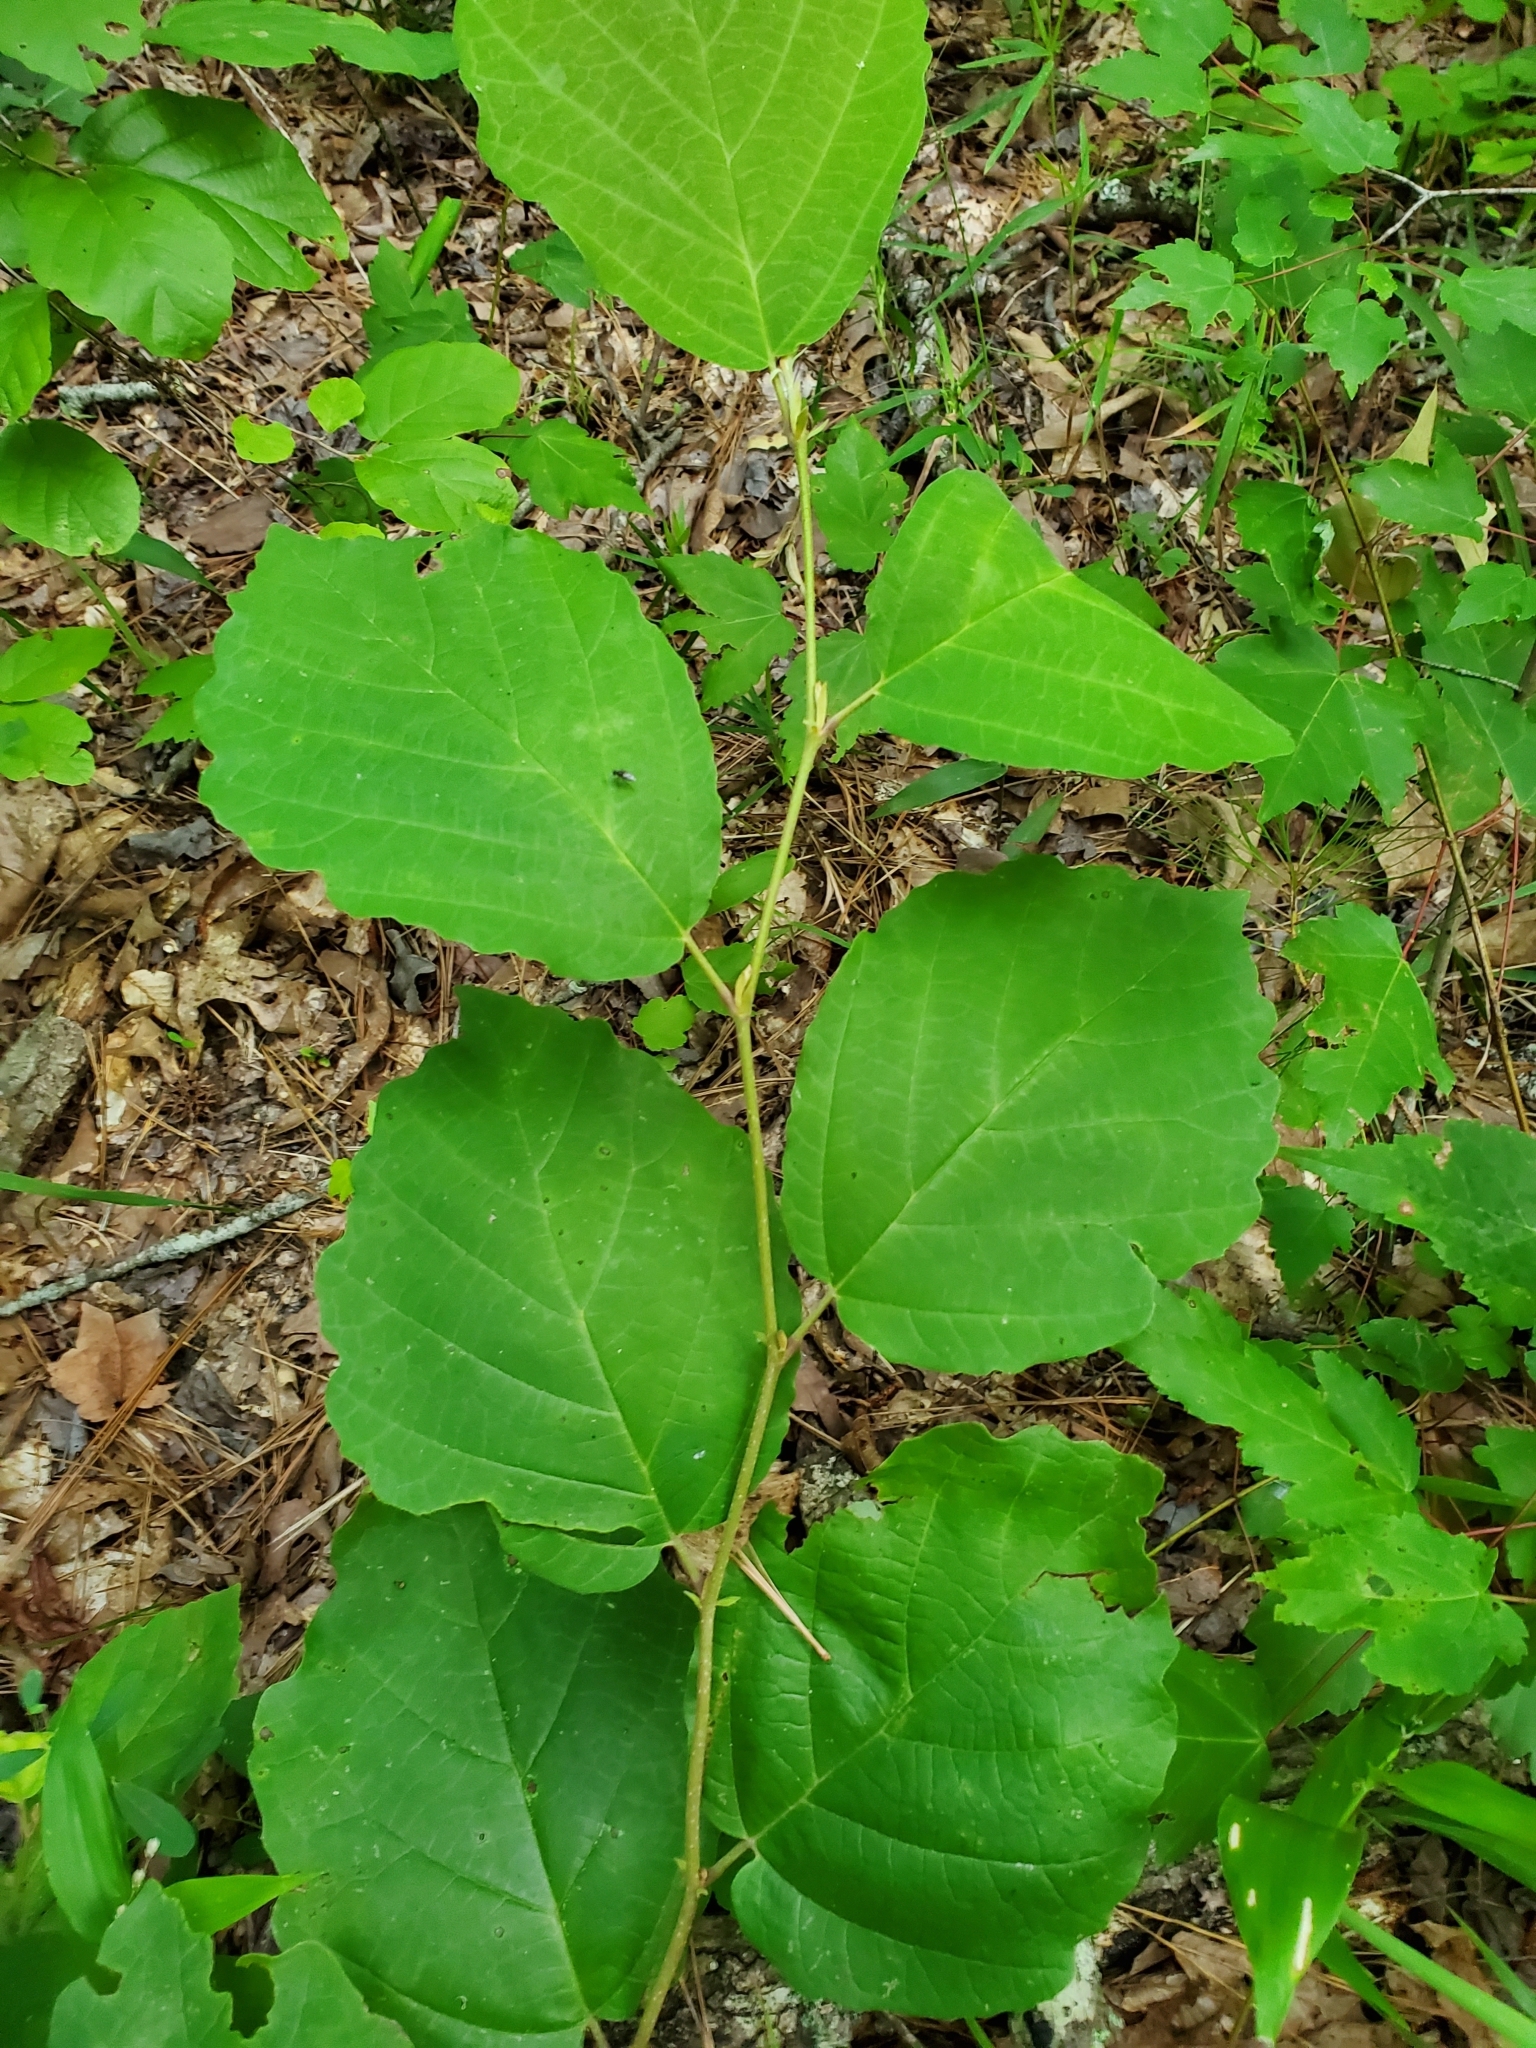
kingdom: Plantae
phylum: Tracheophyta
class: Magnoliopsida
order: Saxifragales
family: Hamamelidaceae
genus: Hamamelis
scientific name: Hamamelis virginiana
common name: Witch-hazel
